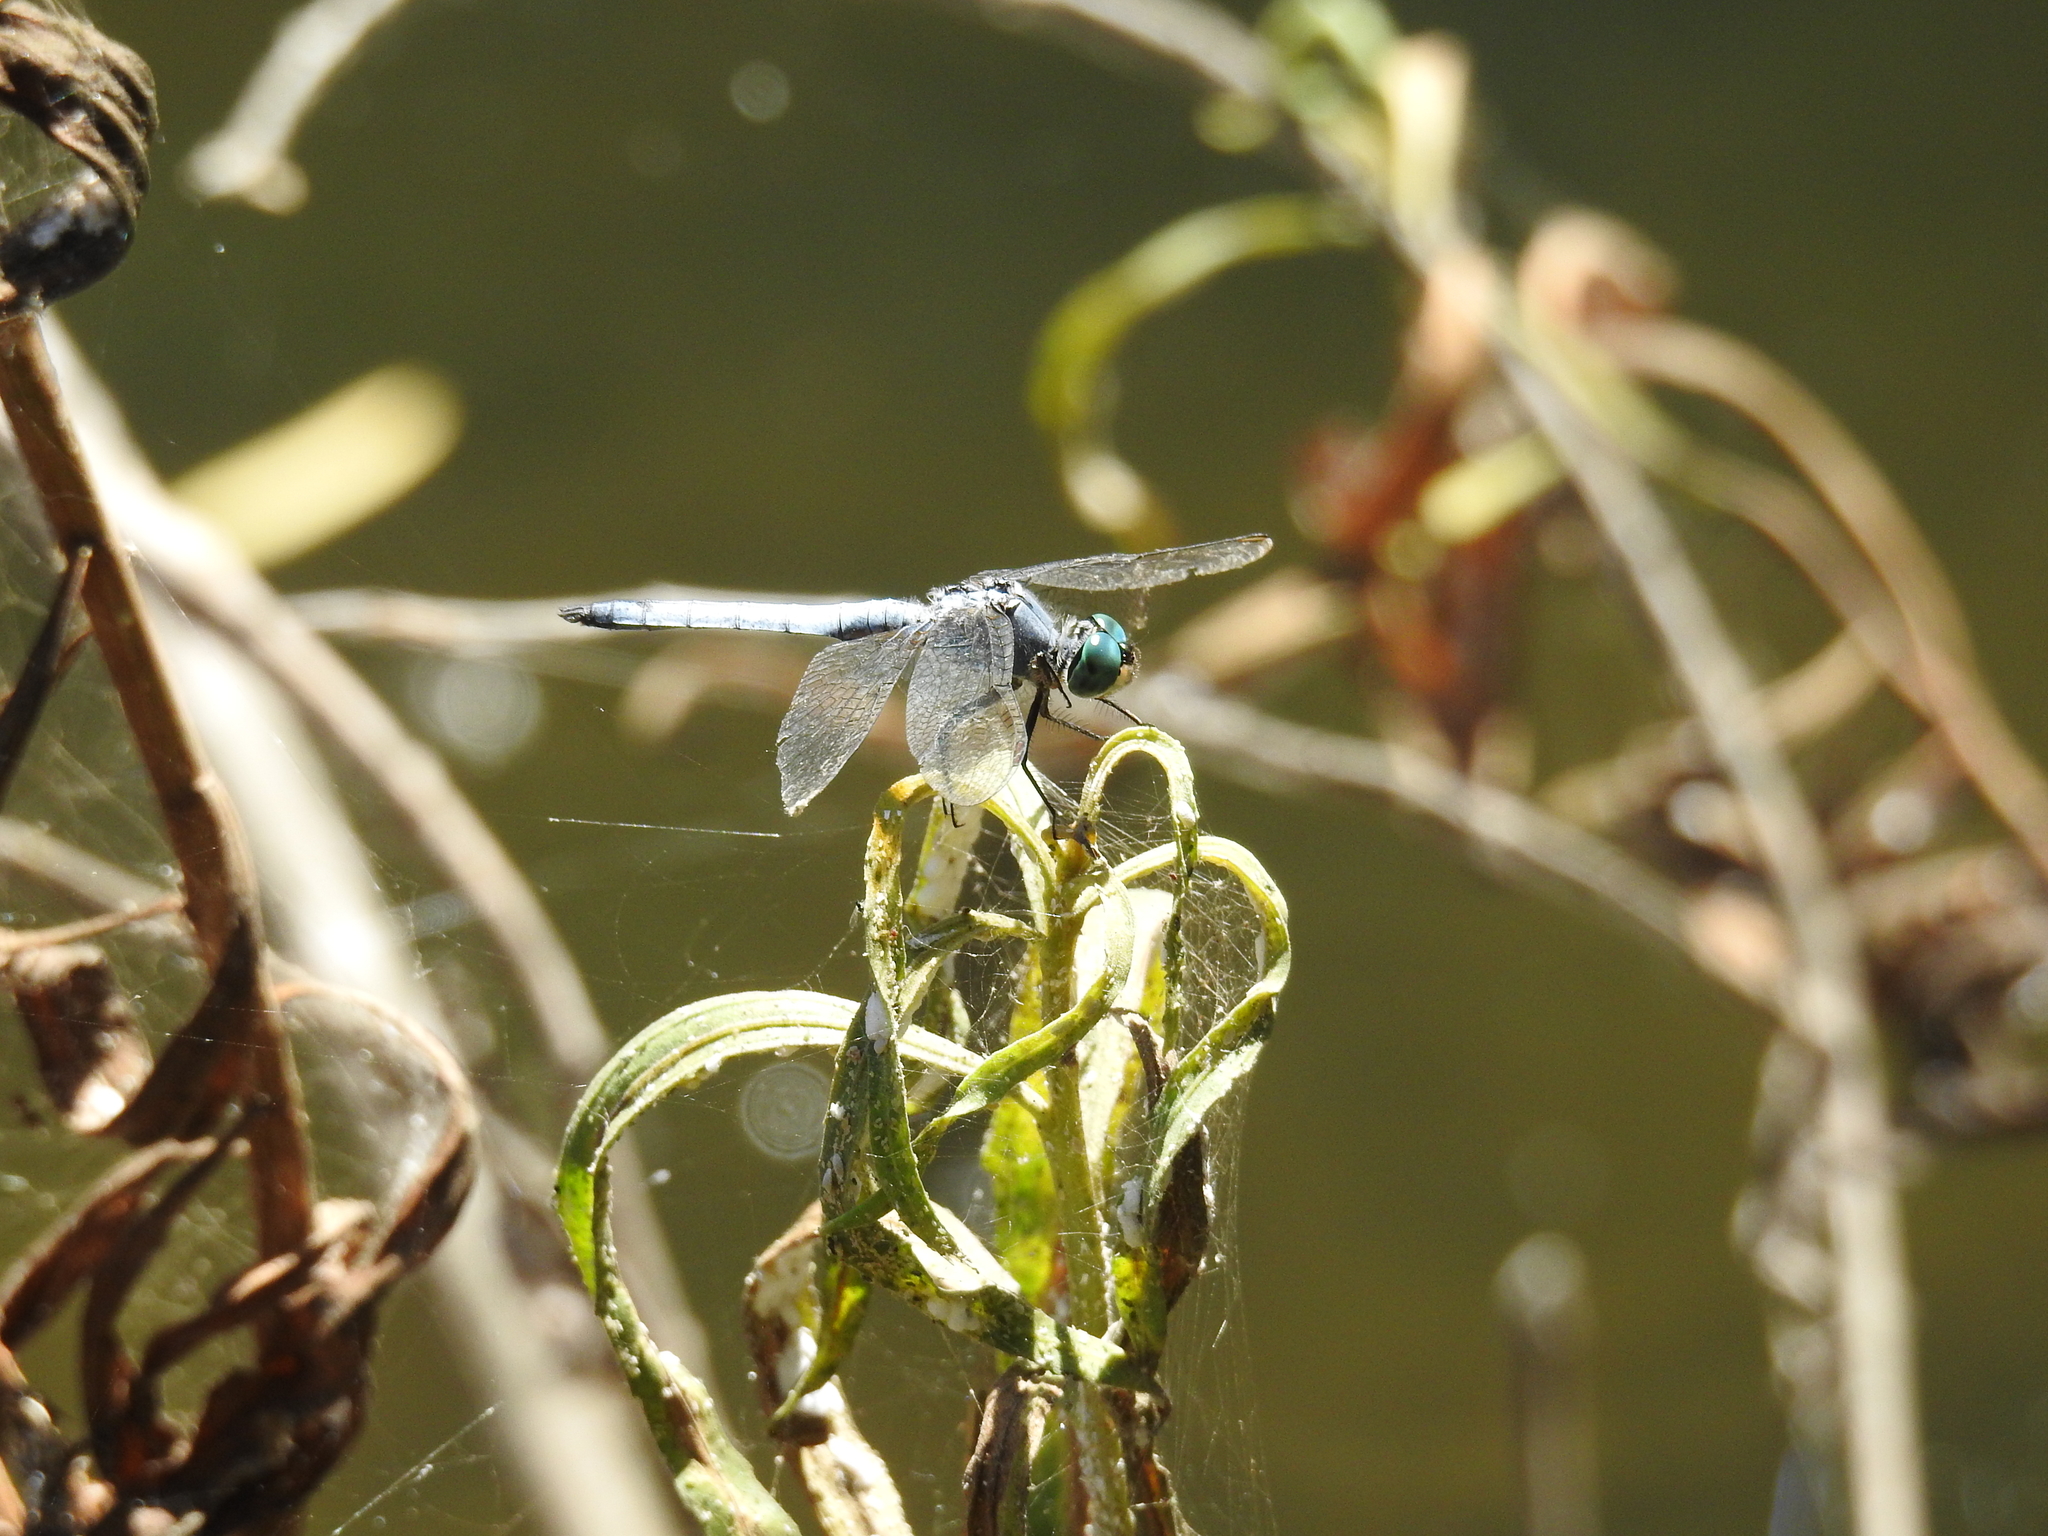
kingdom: Animalia
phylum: Arthropoda
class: Insecta
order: Odonata
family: Libellulidae
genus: Pachydiplax
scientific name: Pachydiplax longipennis
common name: Blue dasher
